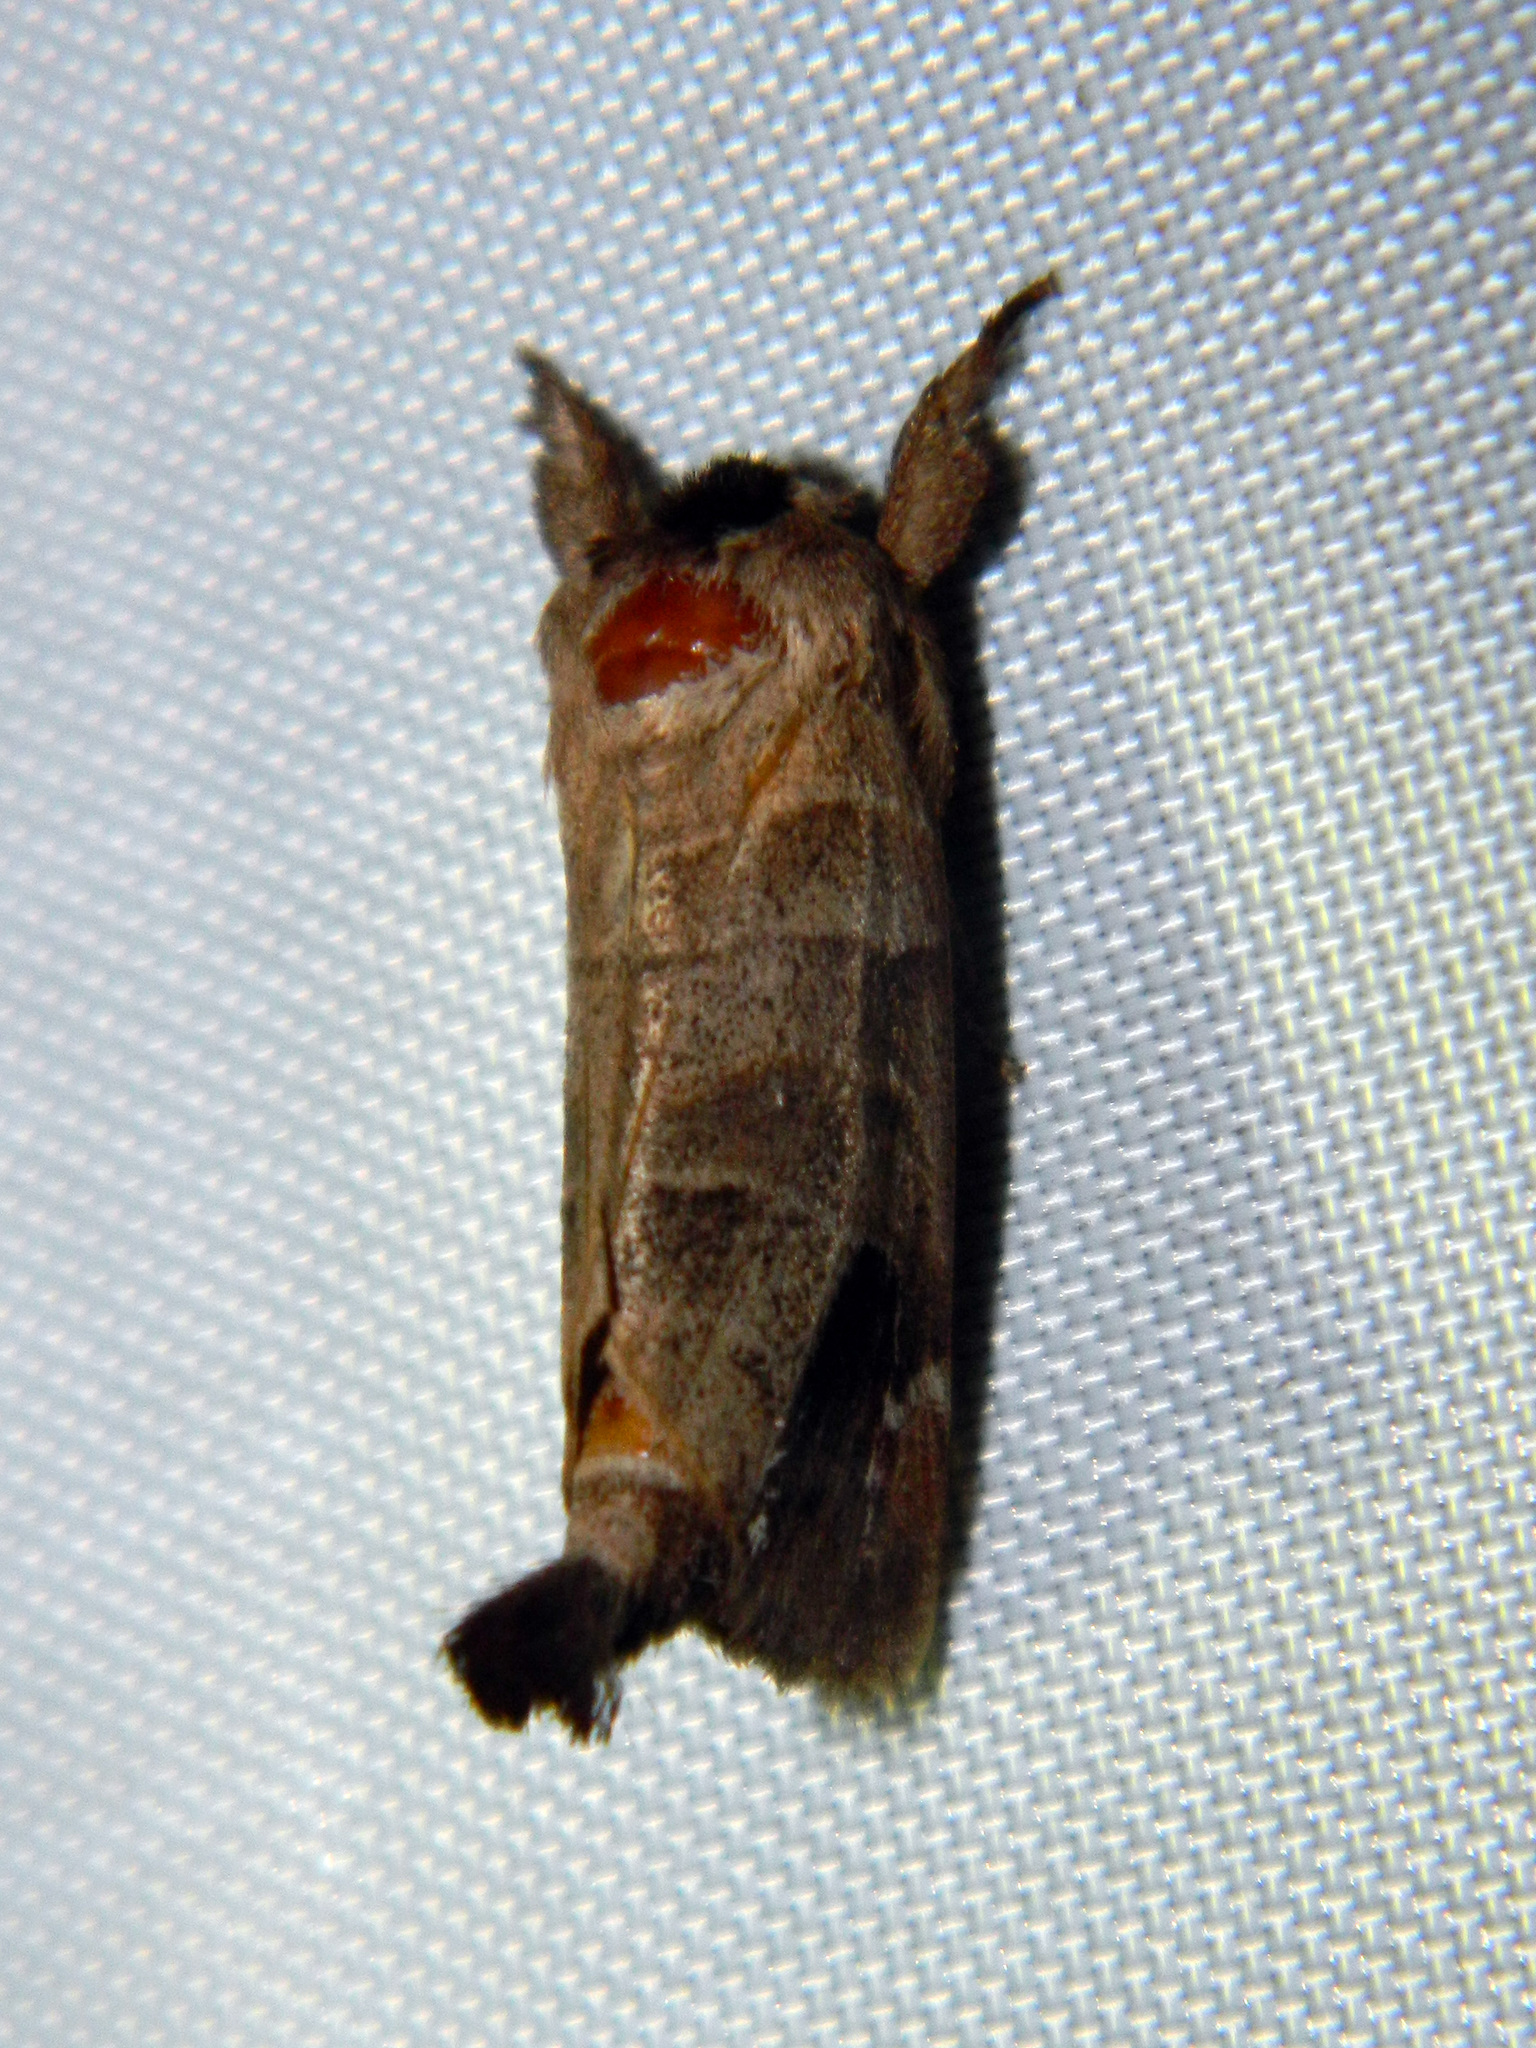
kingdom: Animalia
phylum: Arthropoda
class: Insecta
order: Lepidoptera
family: Notodontidae
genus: Clostera
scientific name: Clostera albosigma
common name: Sigmoid prominent
